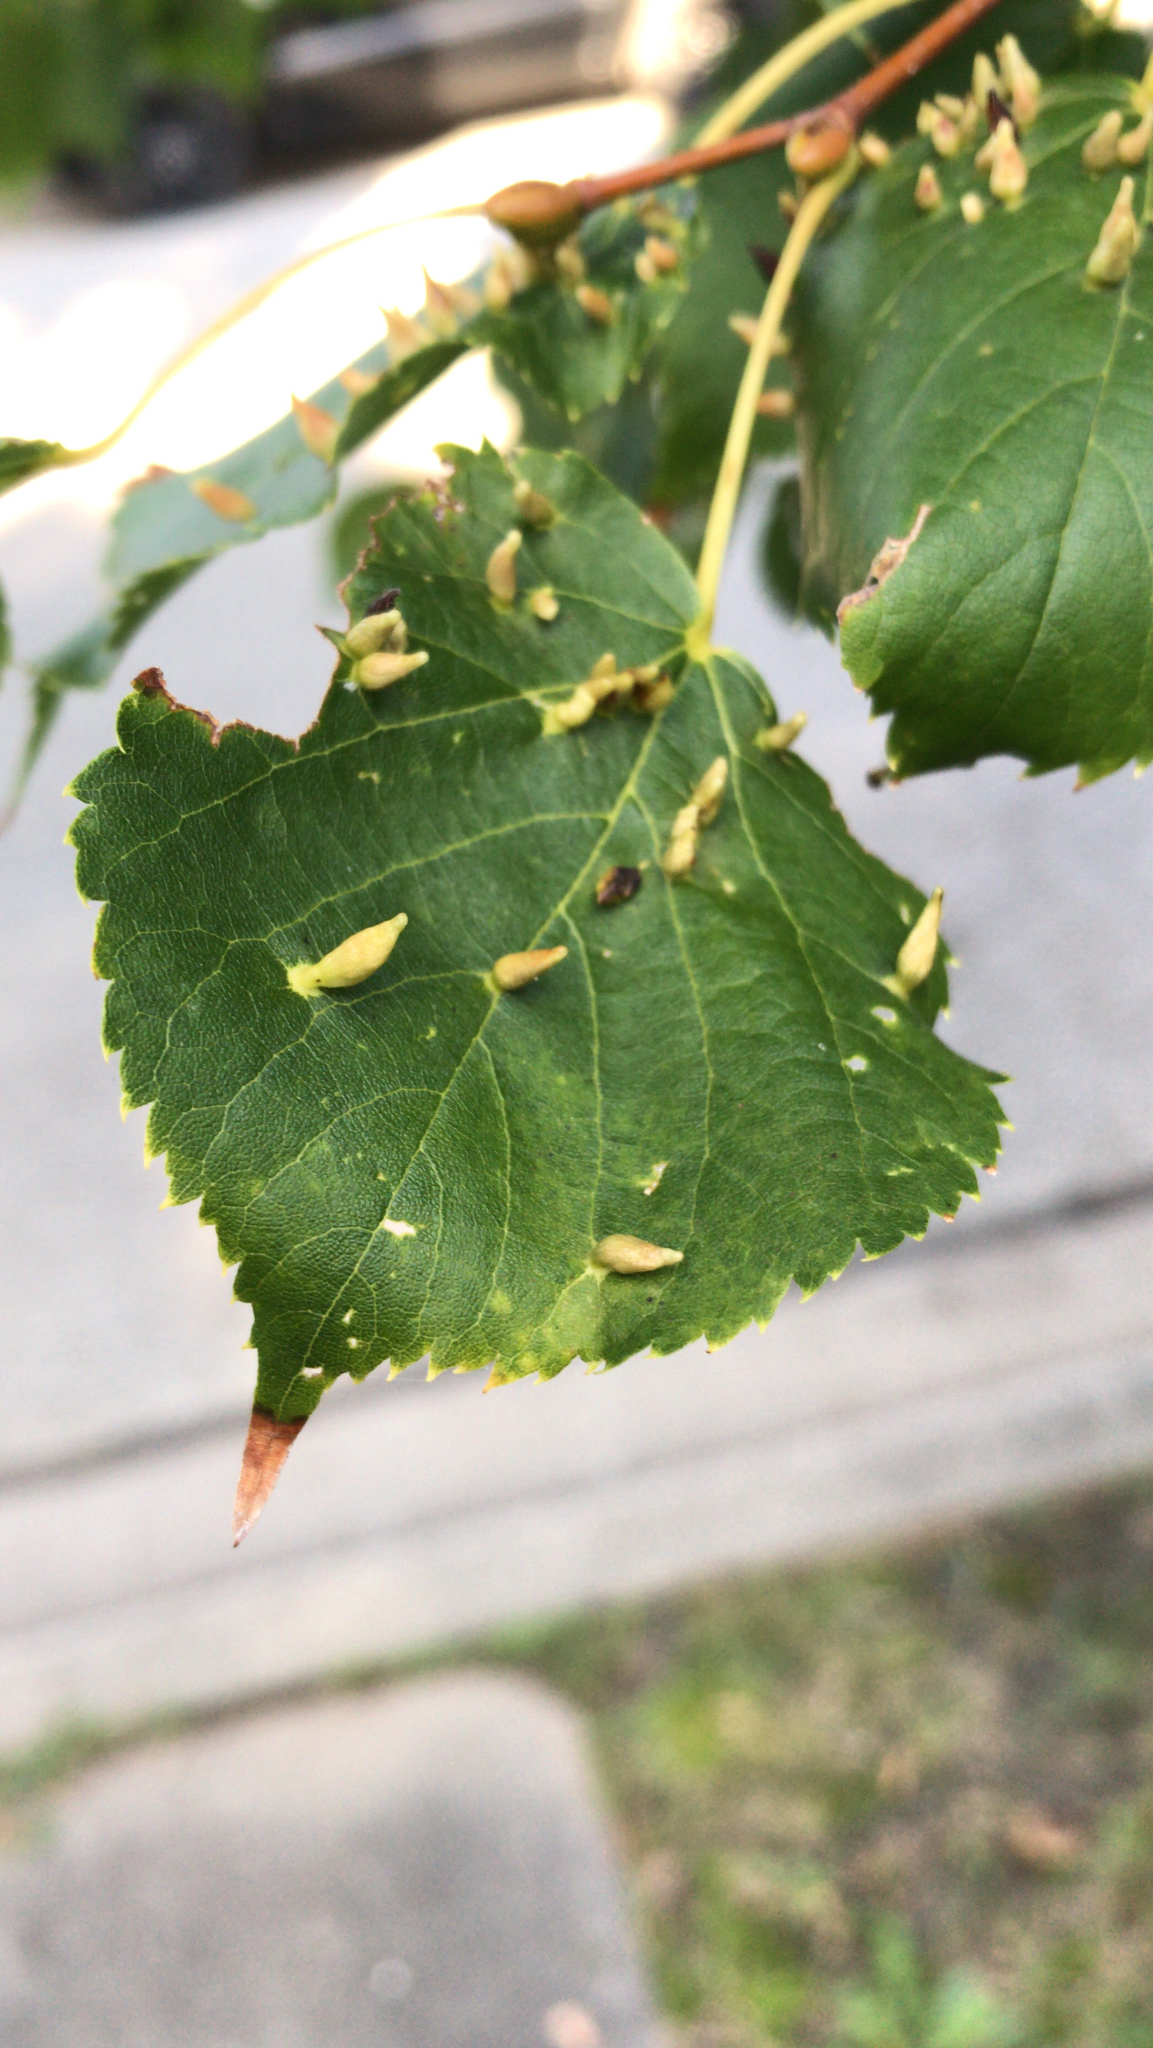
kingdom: Animalia
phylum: Arthropoda
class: Arachnida
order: Trombidiformes
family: Eriophyidae
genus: Eriophyes
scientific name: Eriophyes tiliae
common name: Red nail gall mite
